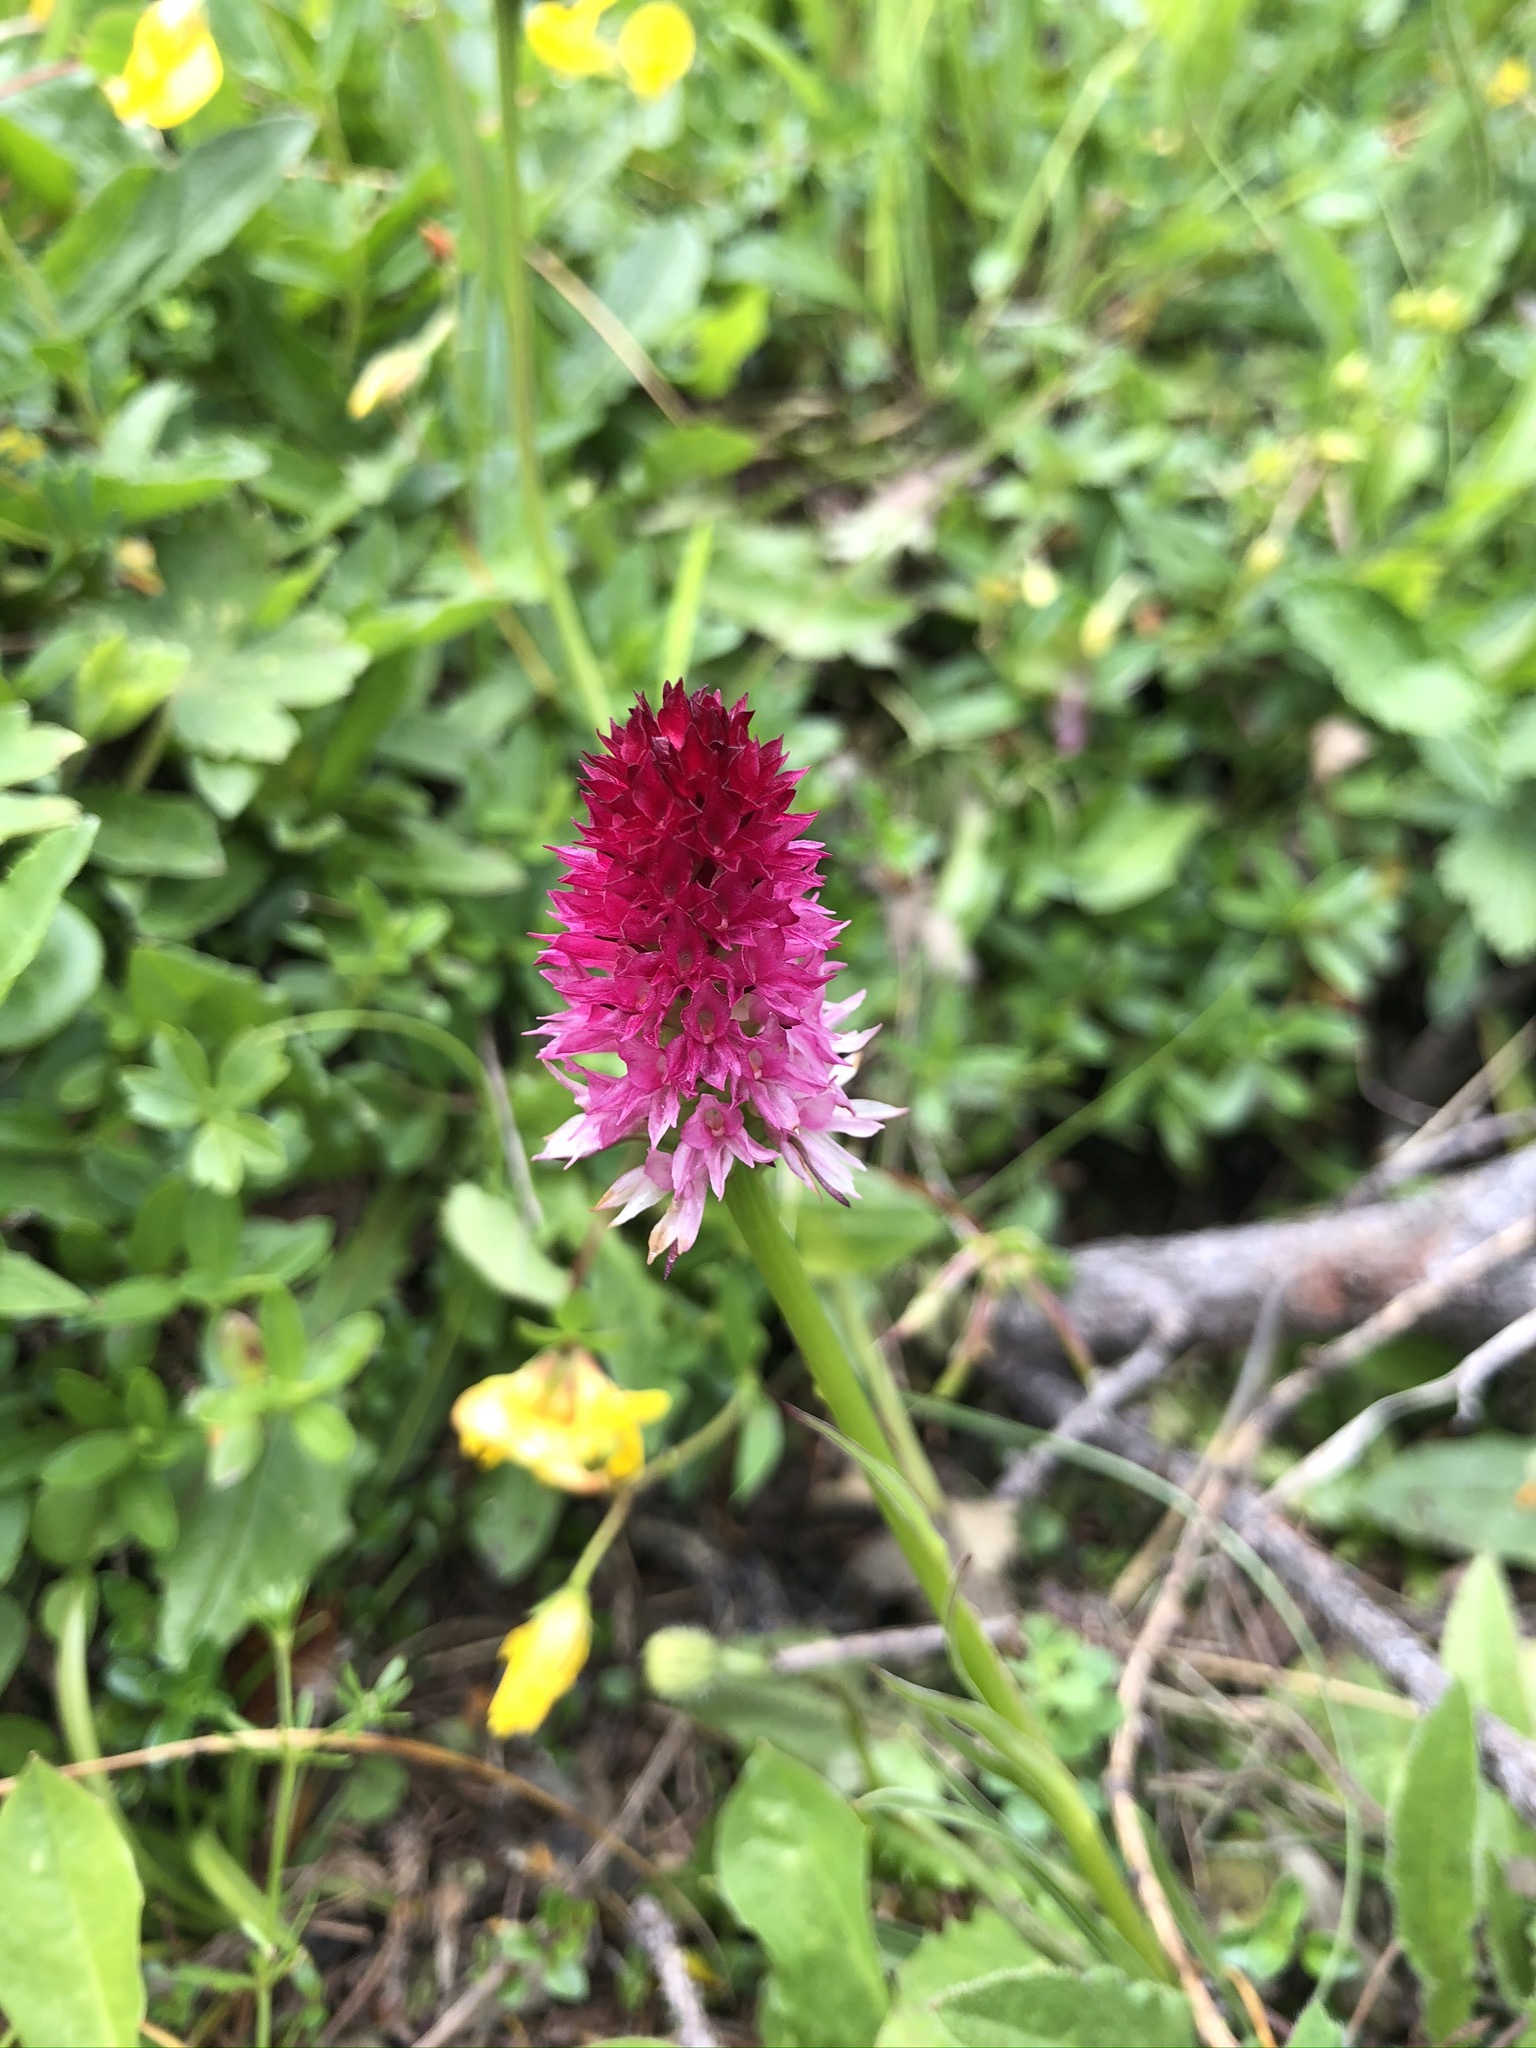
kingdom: Plantae
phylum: Tracheophyta
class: Liliopsida
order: Asparagales
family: Orchidaceae
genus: Gymnadenia
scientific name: Gymnadenia bicolor
